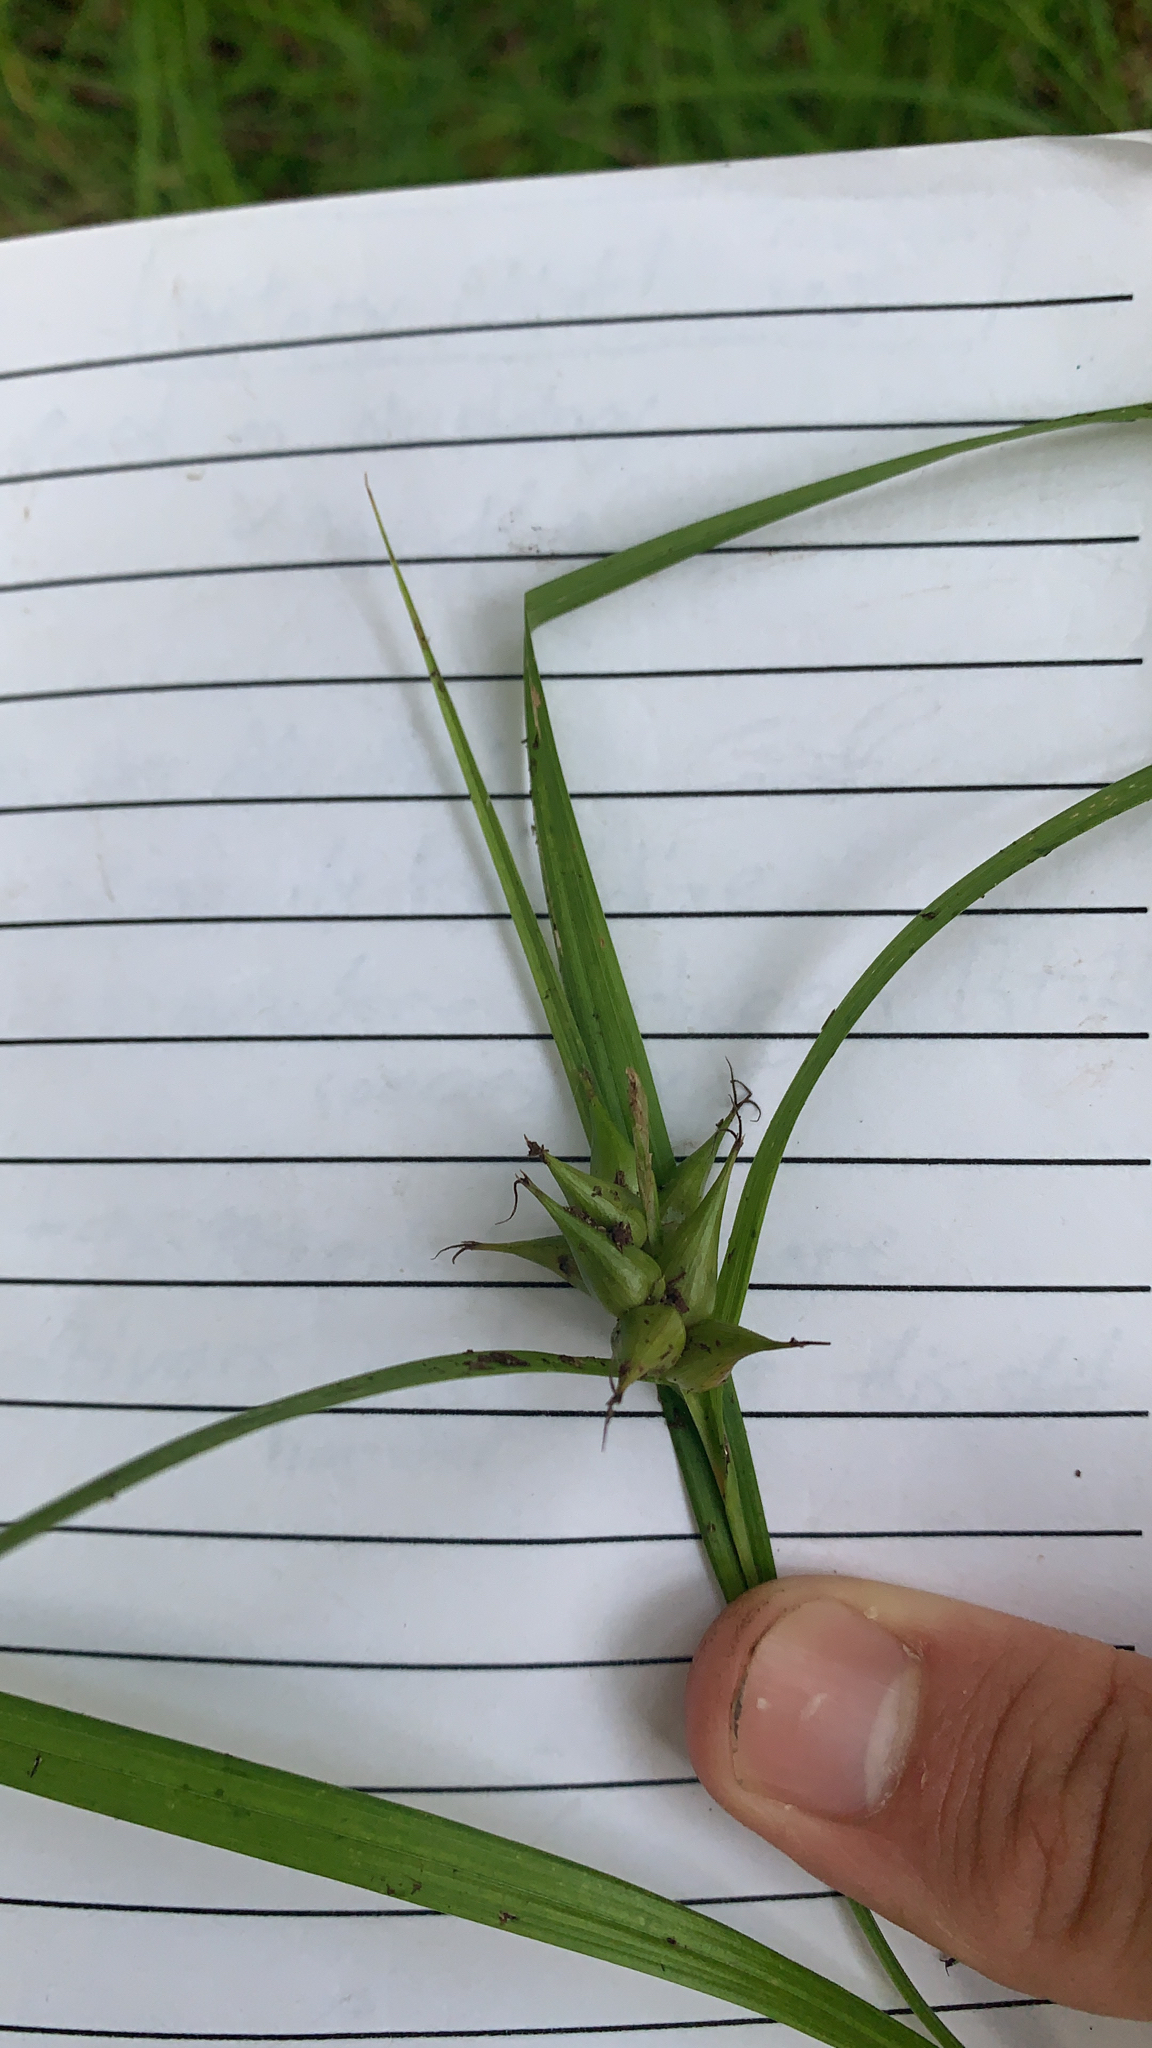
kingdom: Plantae
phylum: Tracheophyta
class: Liliopsida
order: Poales
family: Cyperaceae
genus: Carex
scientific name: Carex intumescens
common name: Greater bladder sedge
